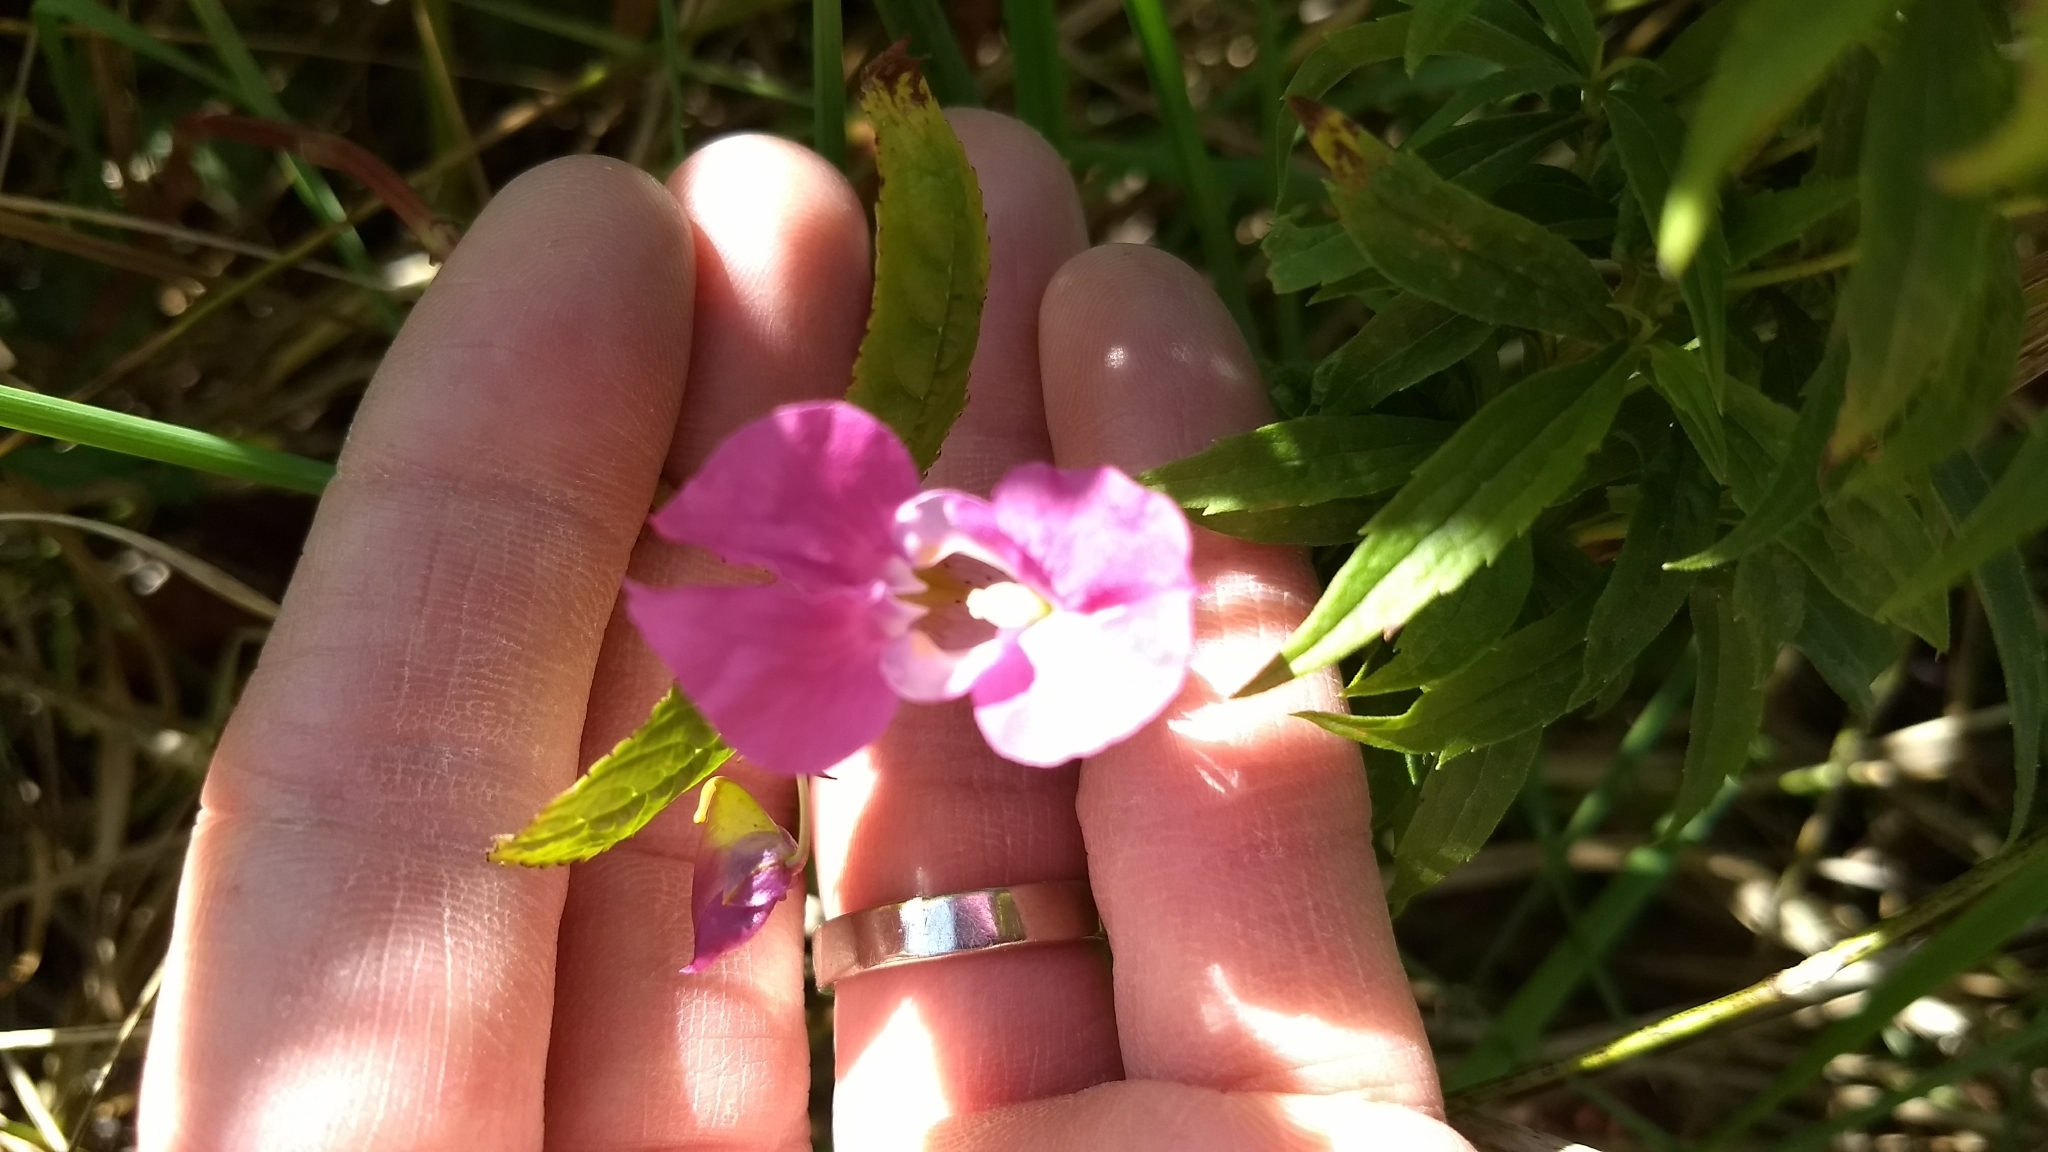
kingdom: Plantae
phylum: Tracheophyta
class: Magnoliopsida
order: Ericales
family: Balsaminaceae
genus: Impatiens
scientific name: Impatiens glandulifera
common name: Himalayan balsam
